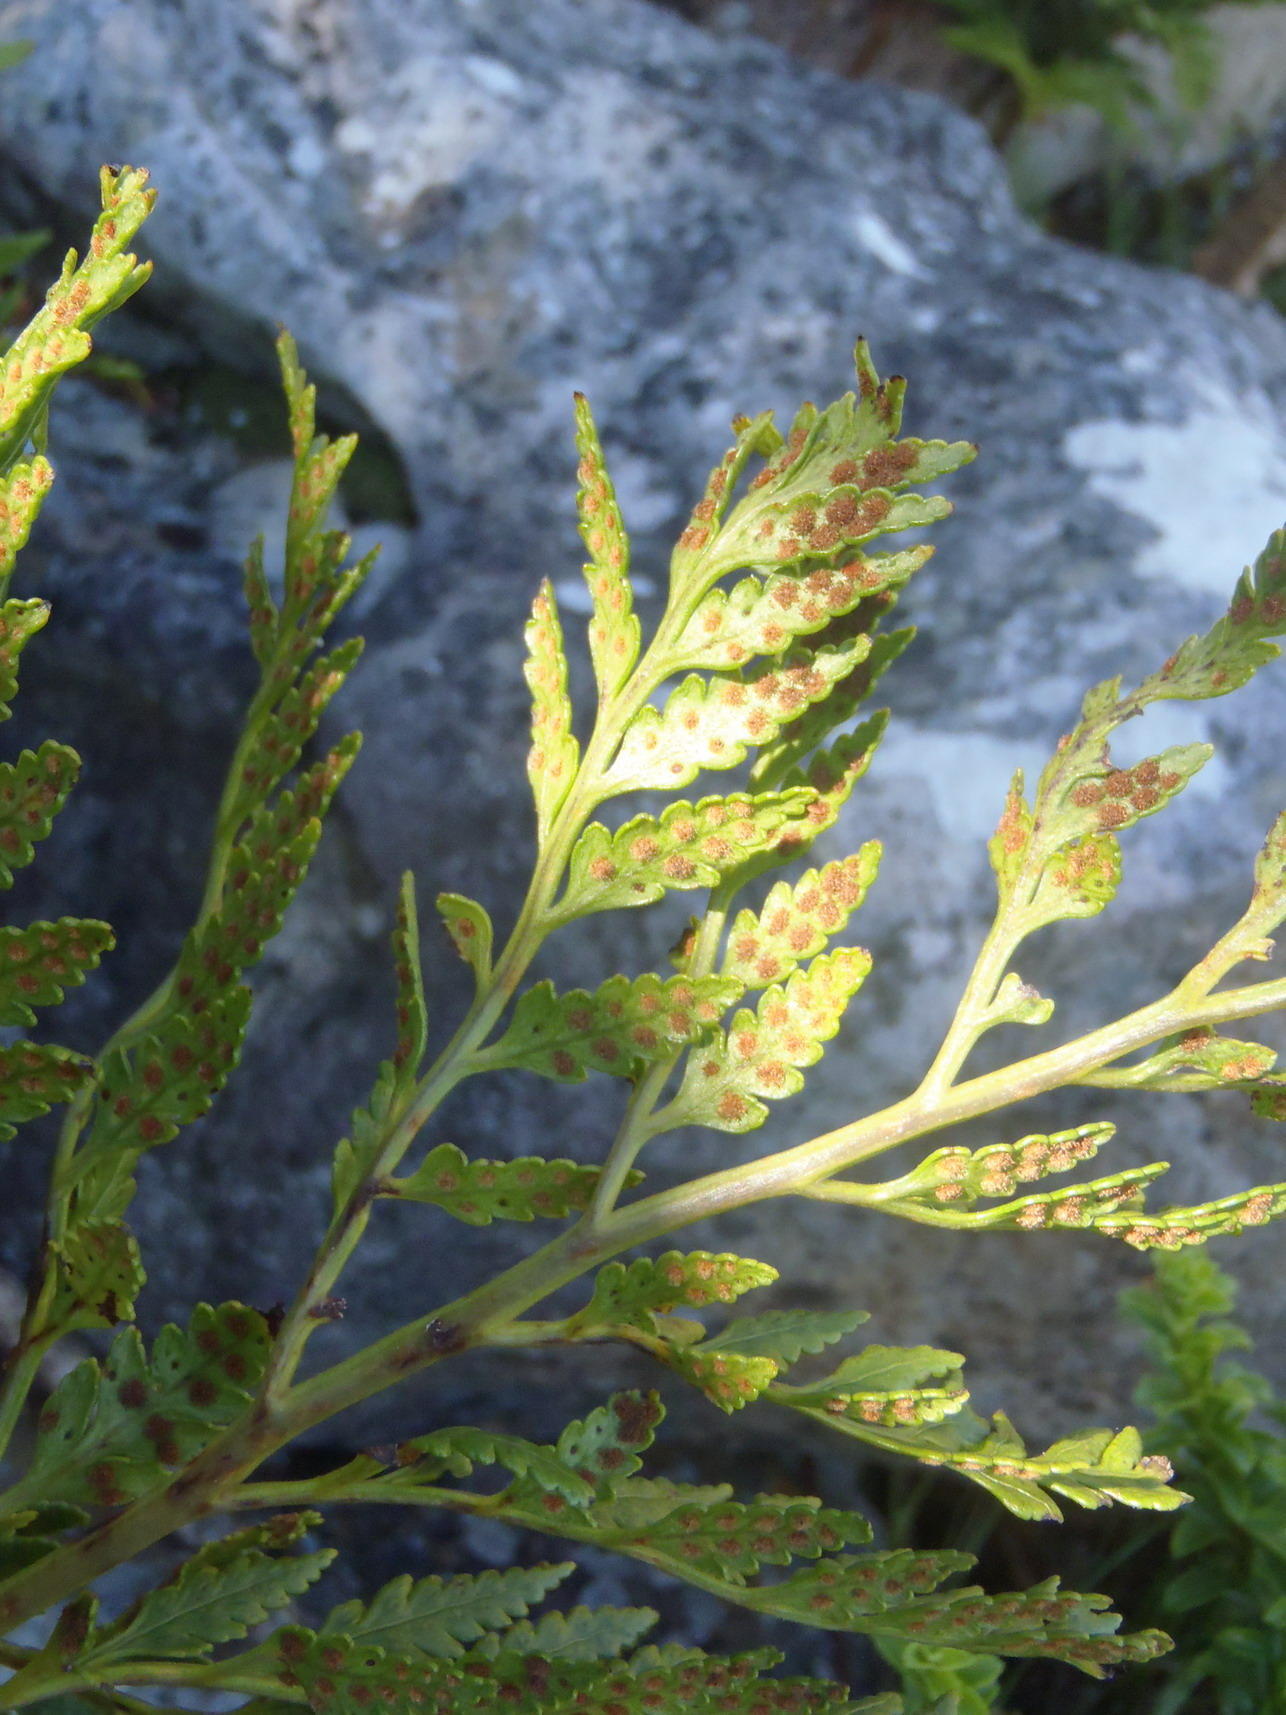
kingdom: Plantae
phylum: Tracheophyta
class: Polypodiopsida
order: Polypodiales
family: Dryopteridaceae
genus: Rumohra
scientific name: Rumohra adiantiformis
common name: Leather fern
